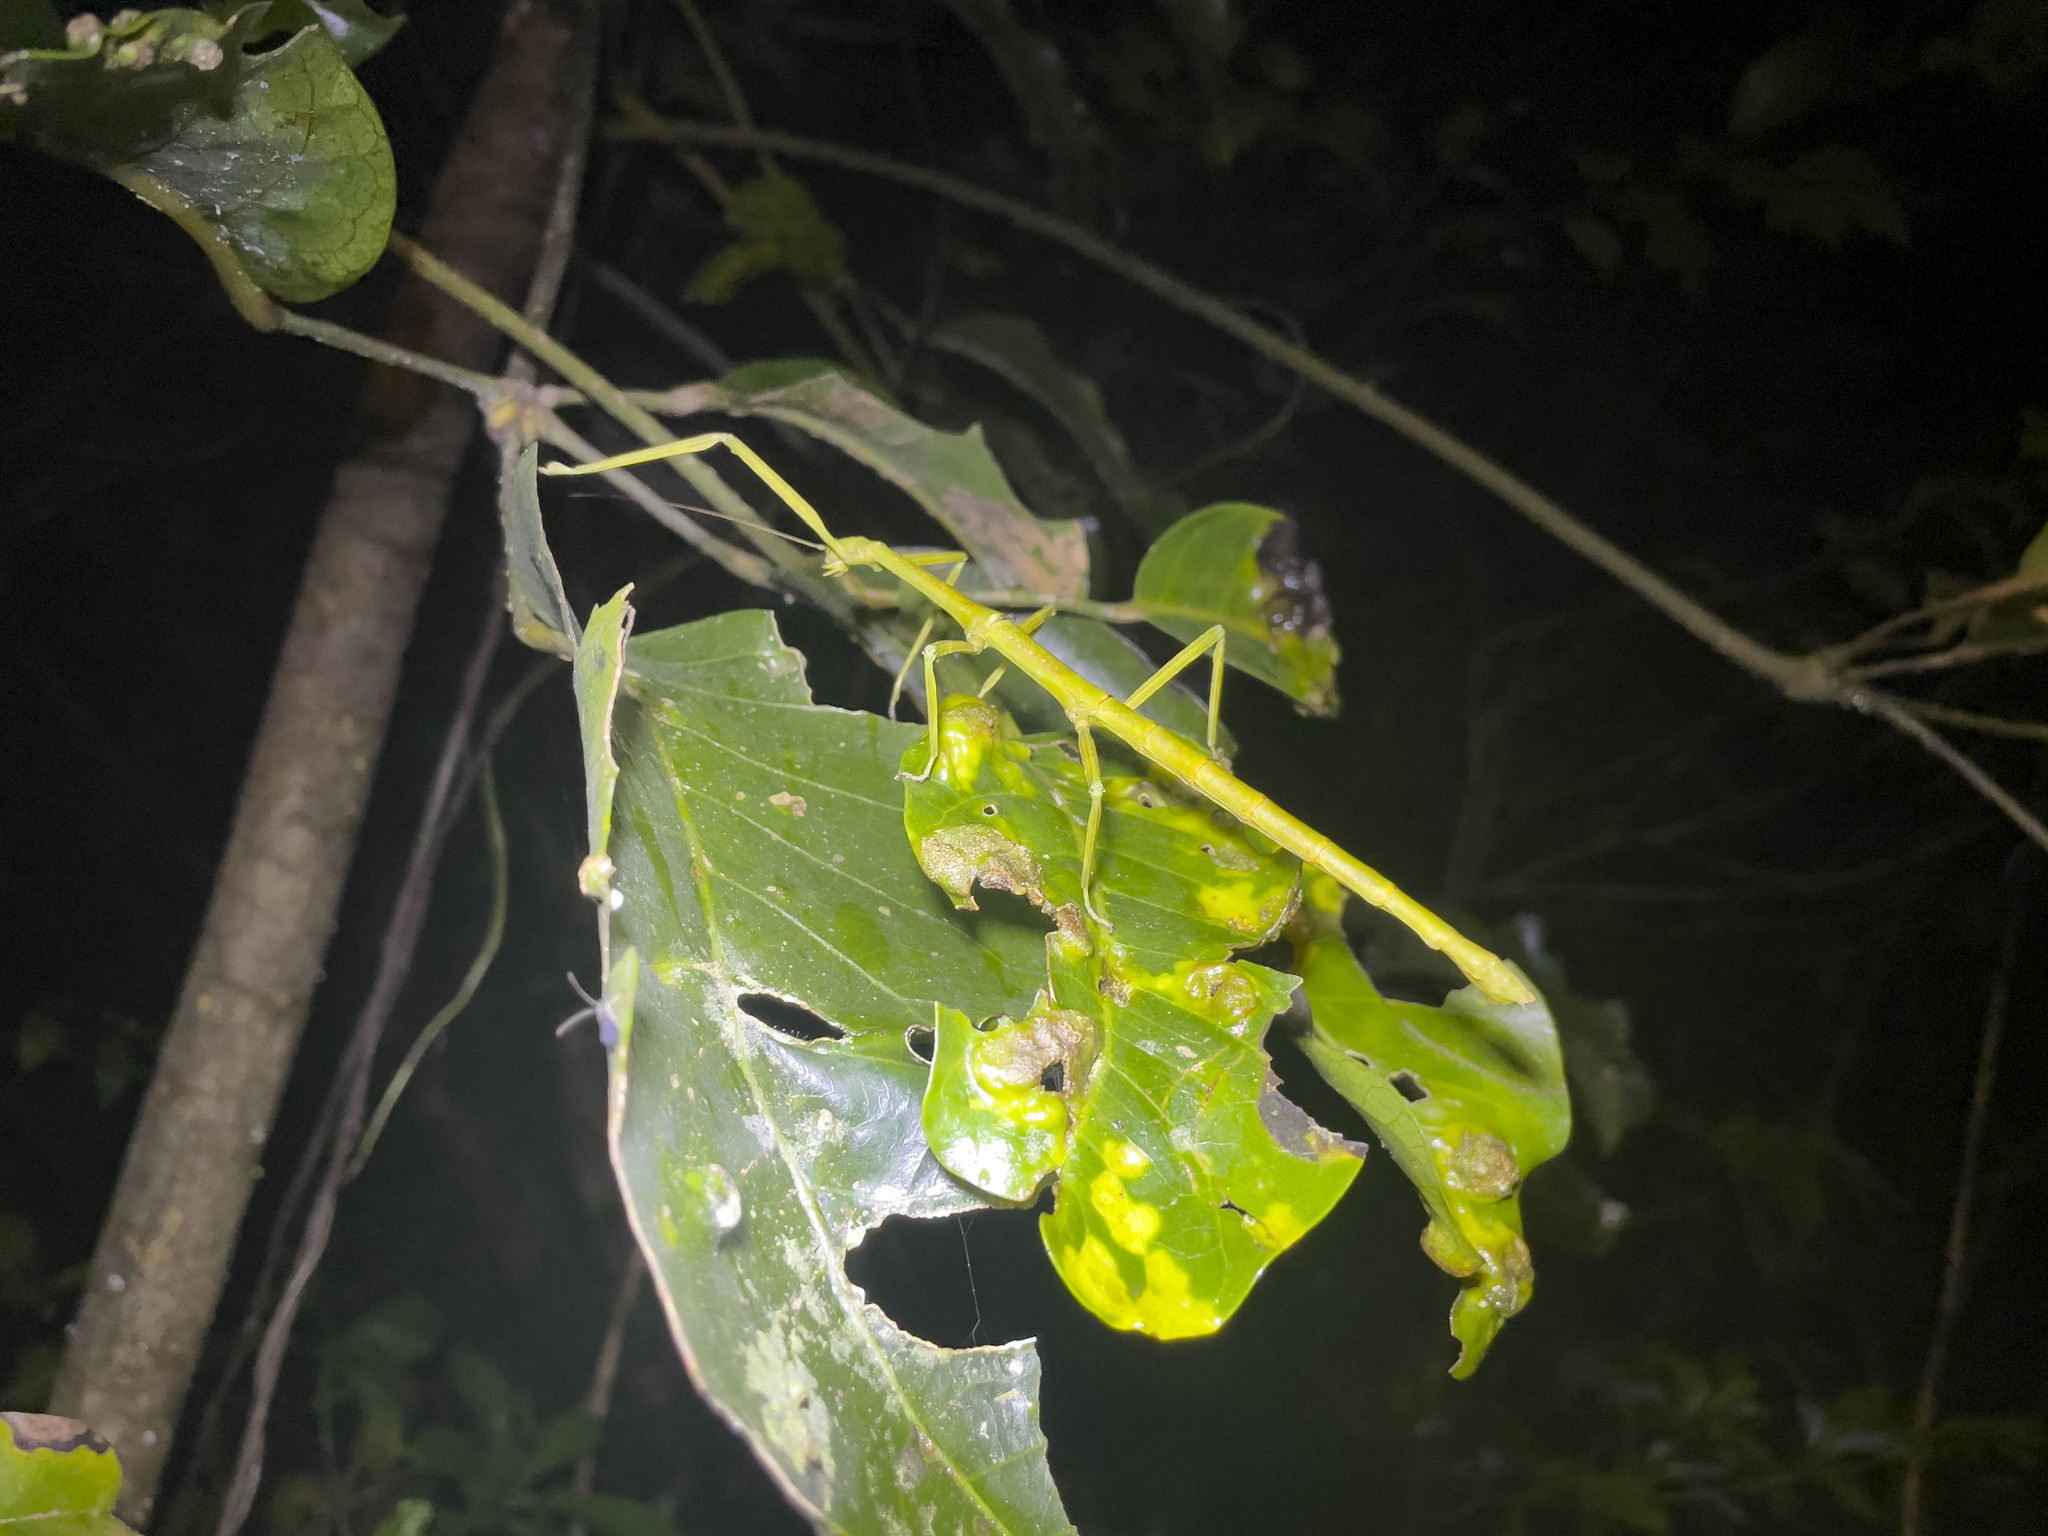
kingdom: Animalia
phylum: Arthropoda
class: Insecta
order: Phasmida
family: Lonchodidae
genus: Phraortes
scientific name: Phraortes stomphax
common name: Hong kong stick insect
